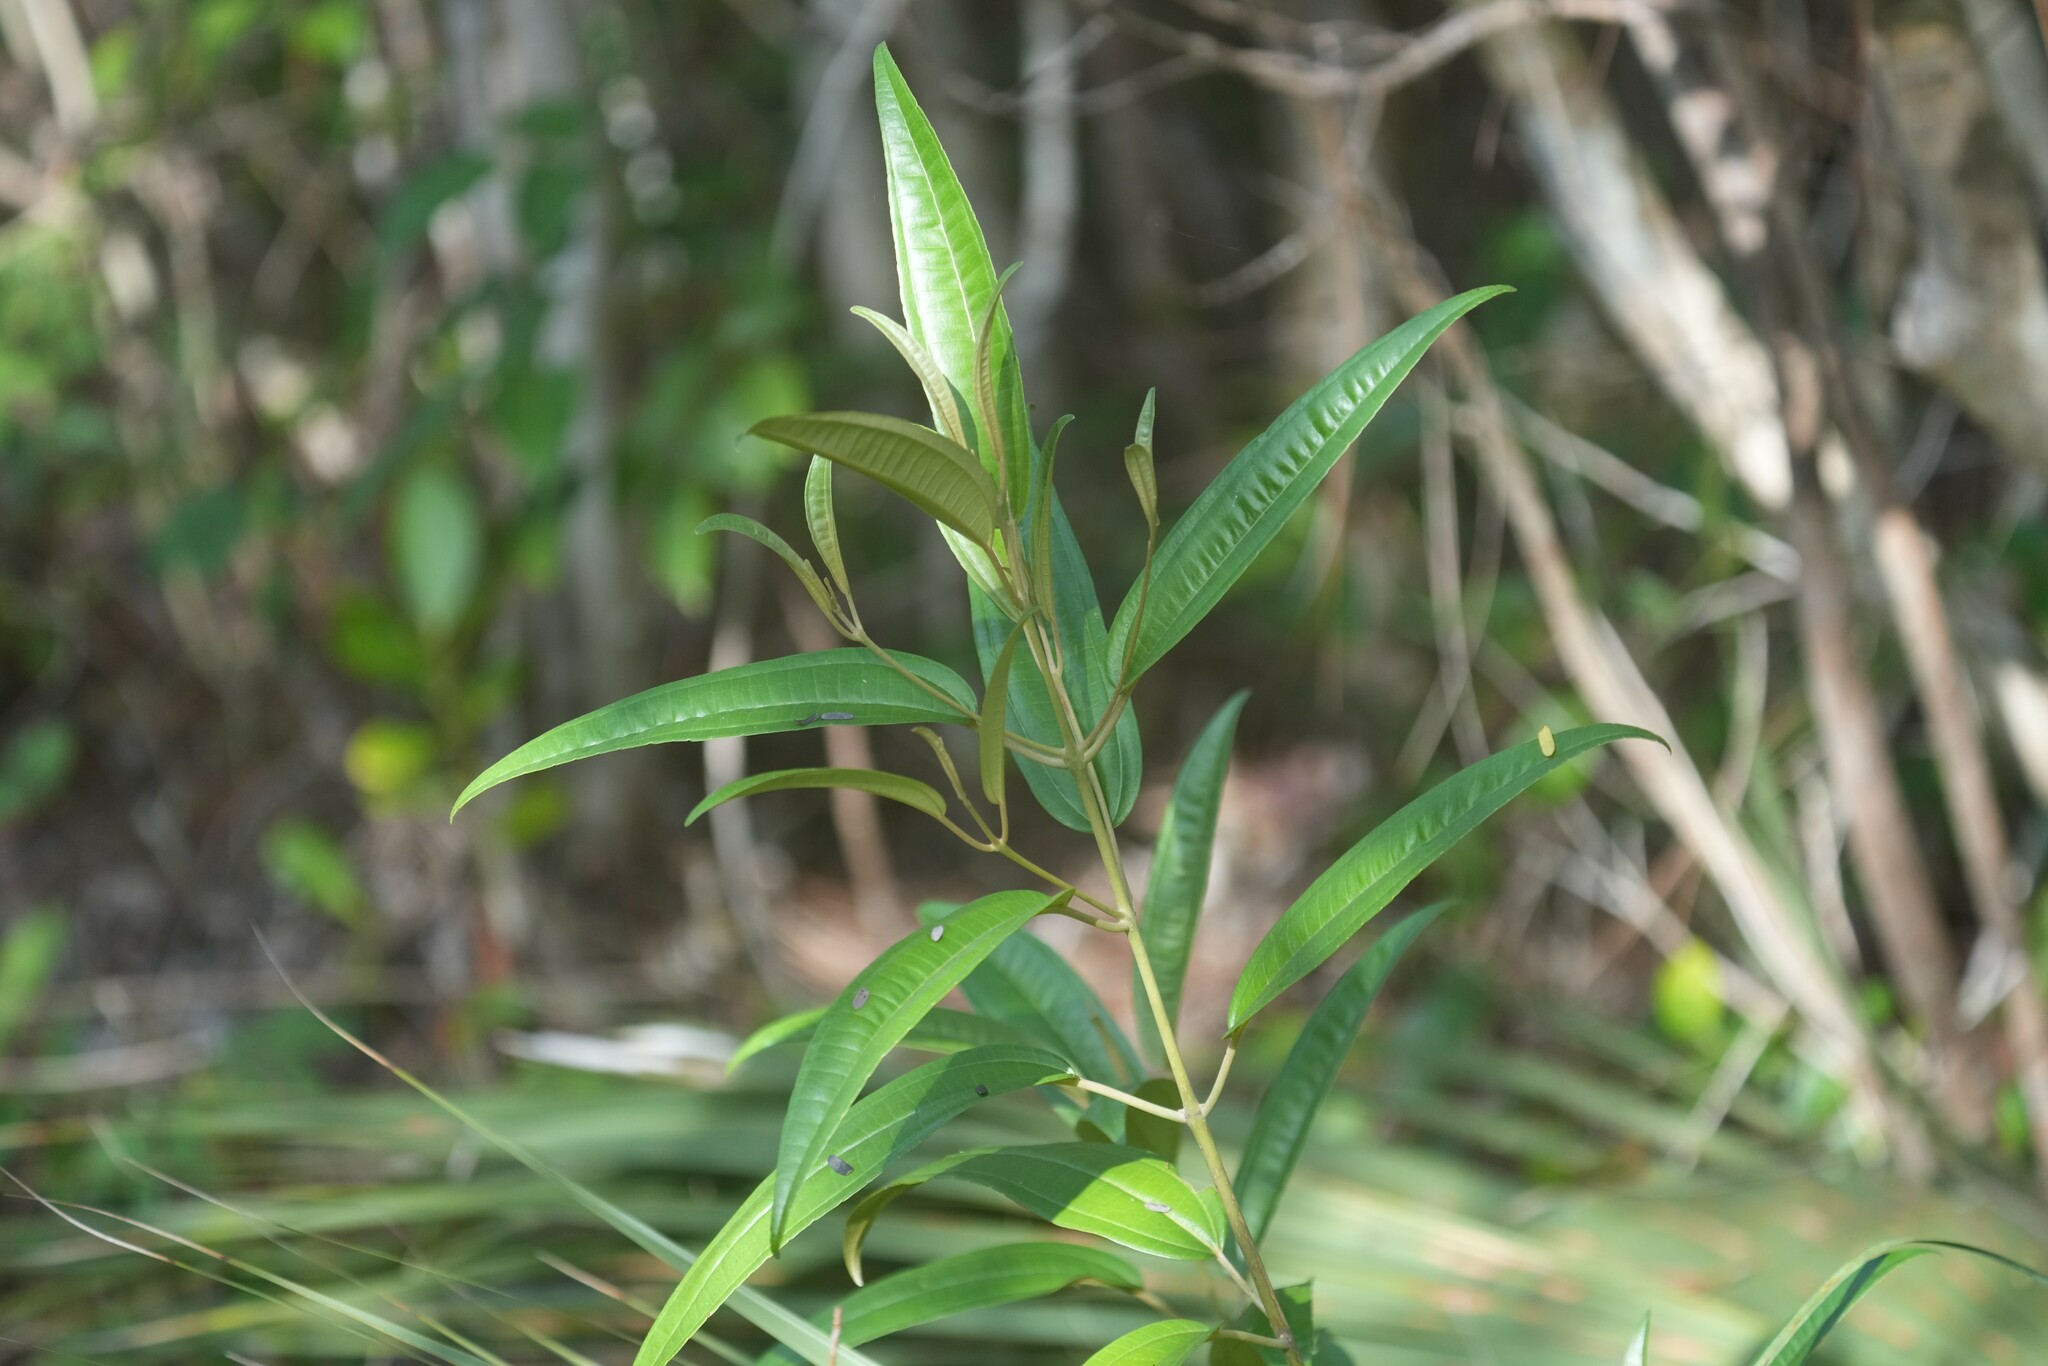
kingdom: Plantae
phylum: Tracheophyta
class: Magnoliopsida
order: Myrtales
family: Melastomataceae
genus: Miconia
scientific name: Miconia bicolor
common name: Johnnyberry
